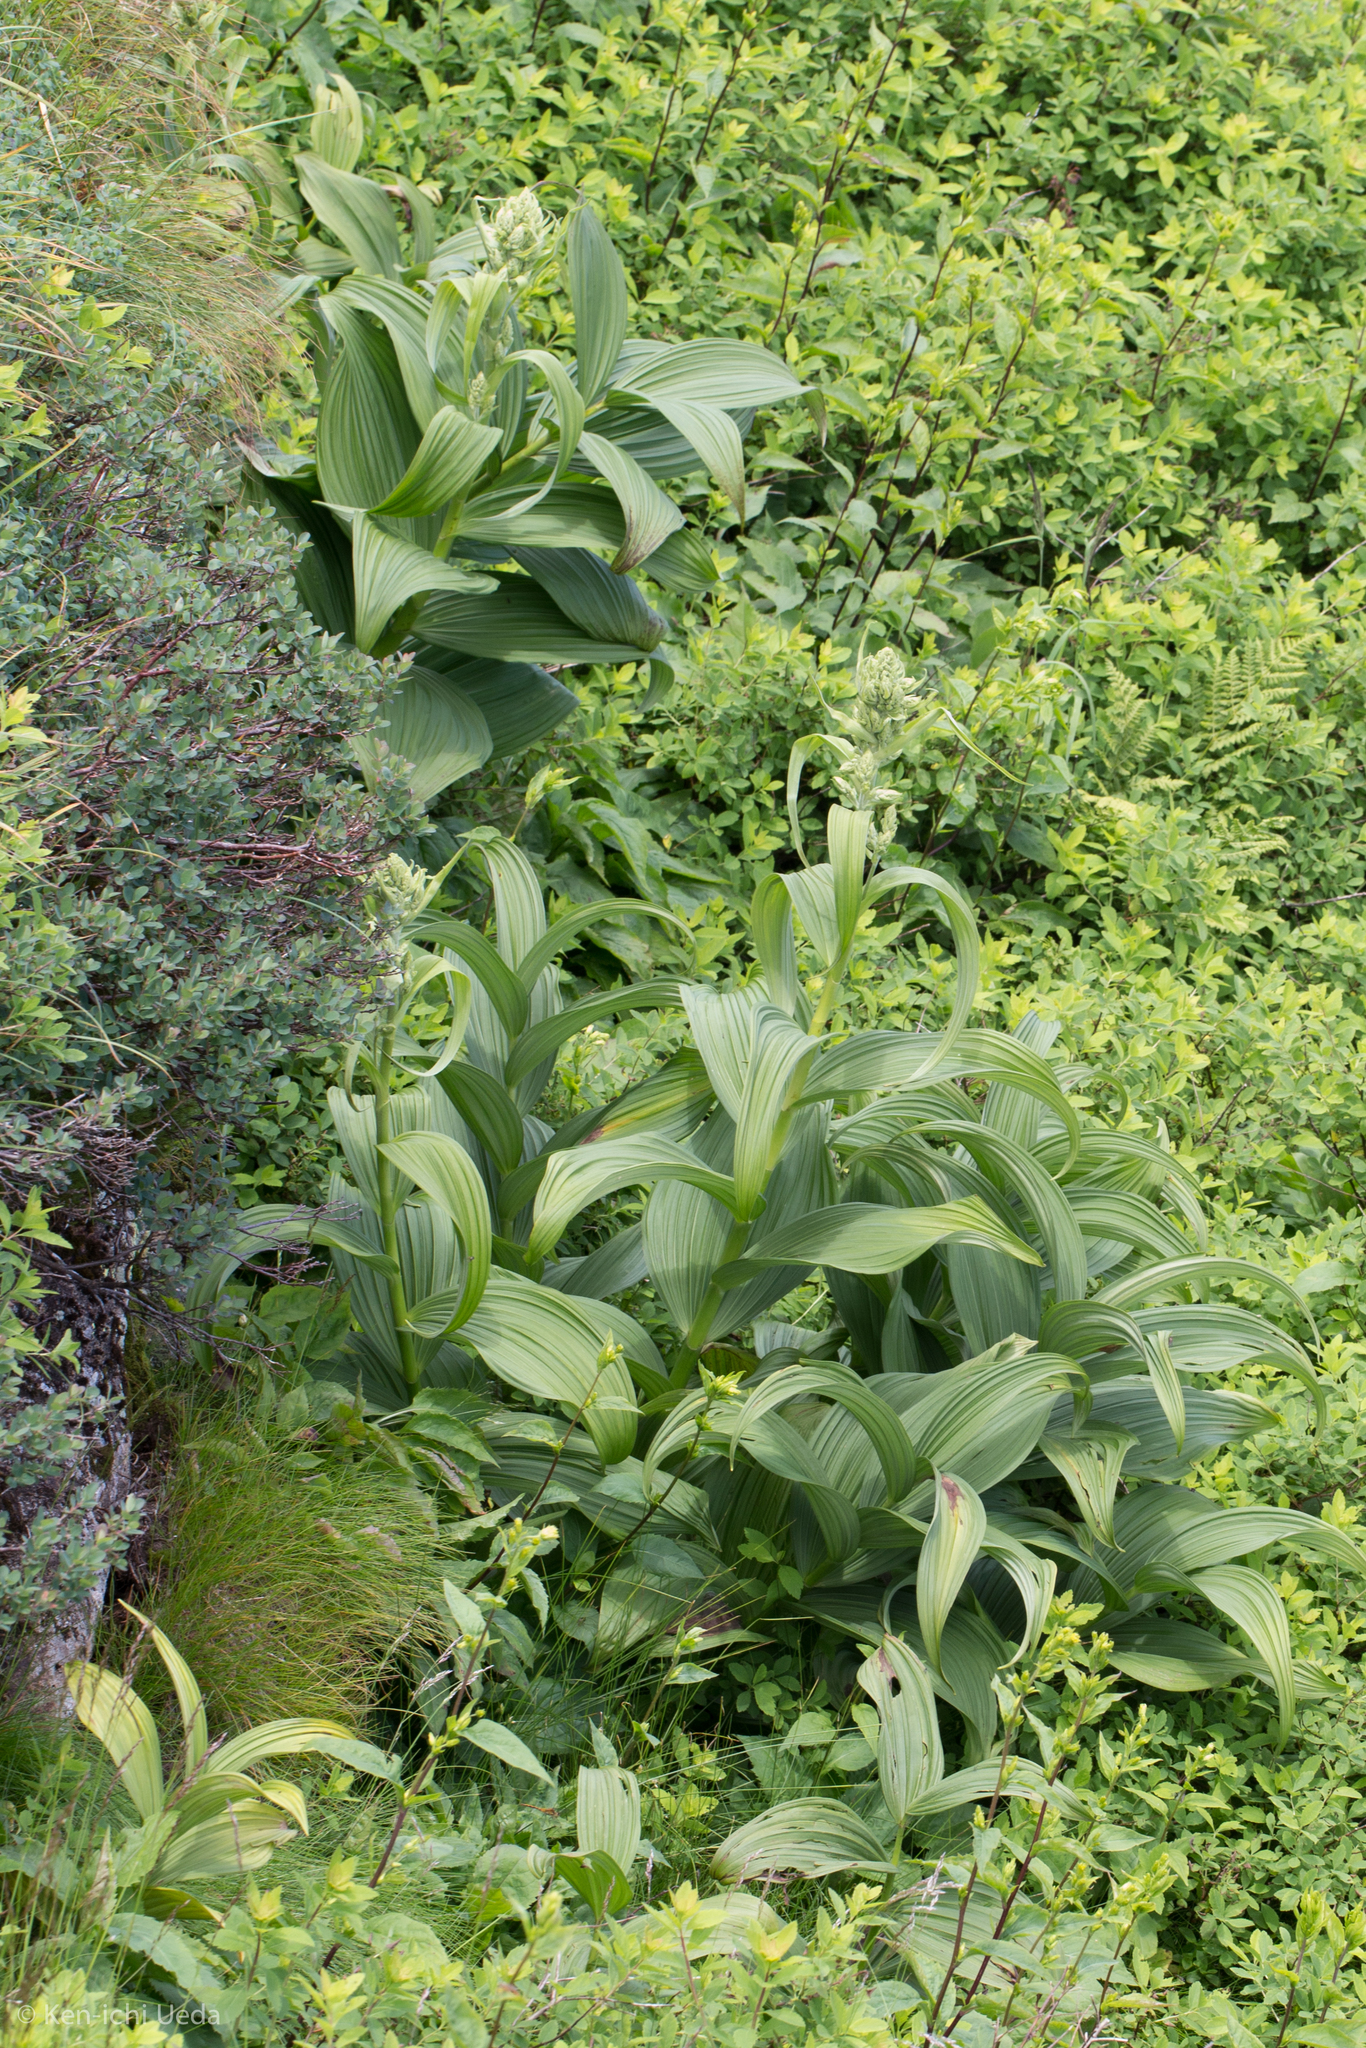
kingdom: Plantae
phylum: Tracheophyta
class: Liliopsida
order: Liliales
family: Melanthiaceae
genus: Veratrum
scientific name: Veratrum viride
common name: American false hellebore
